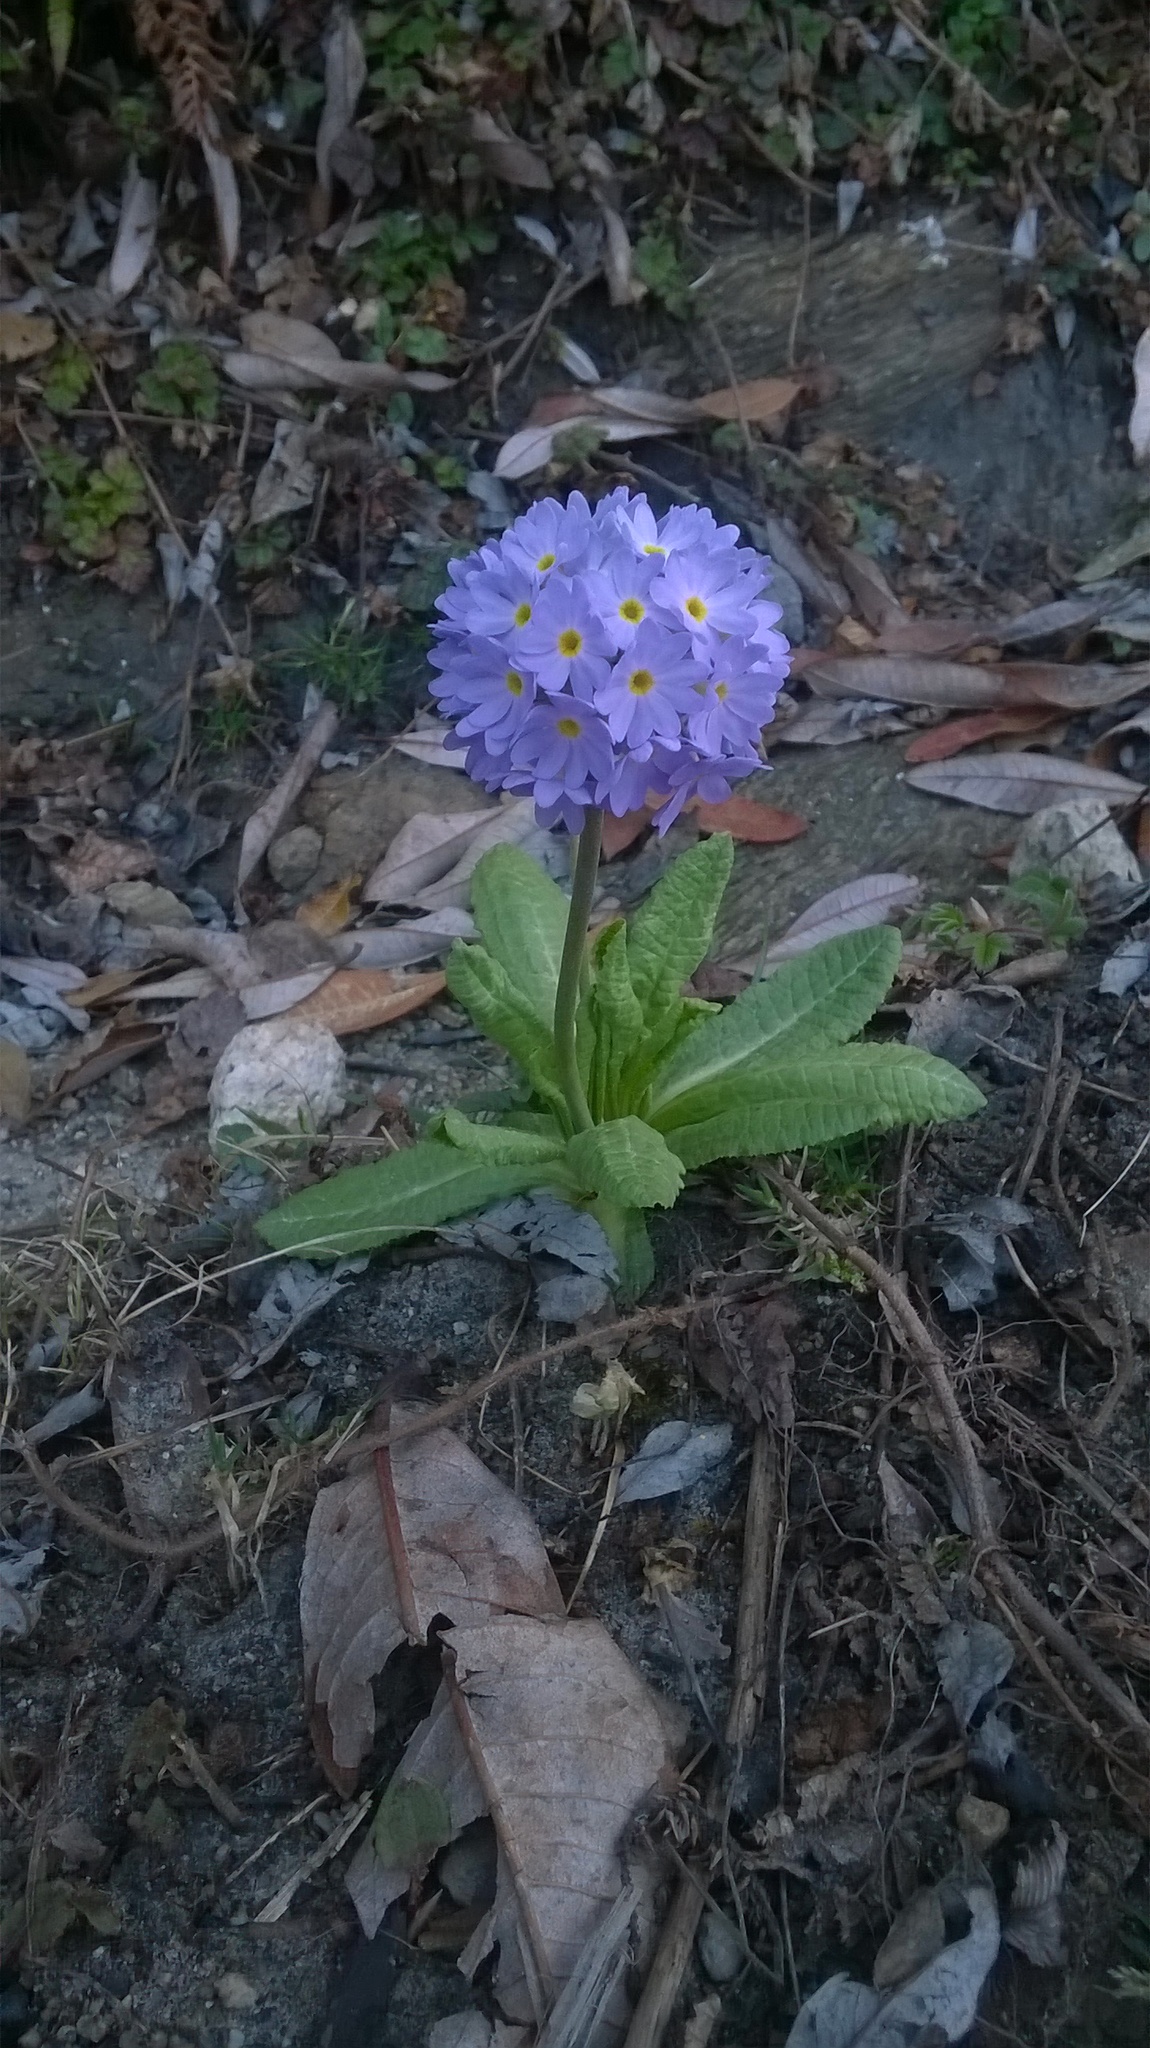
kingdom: Plantae
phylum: Tracheophyta
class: Magnoliopsida
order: Ericales
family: Primulaceae
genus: Primula
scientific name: Primula denticulata
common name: Drumstick primula
